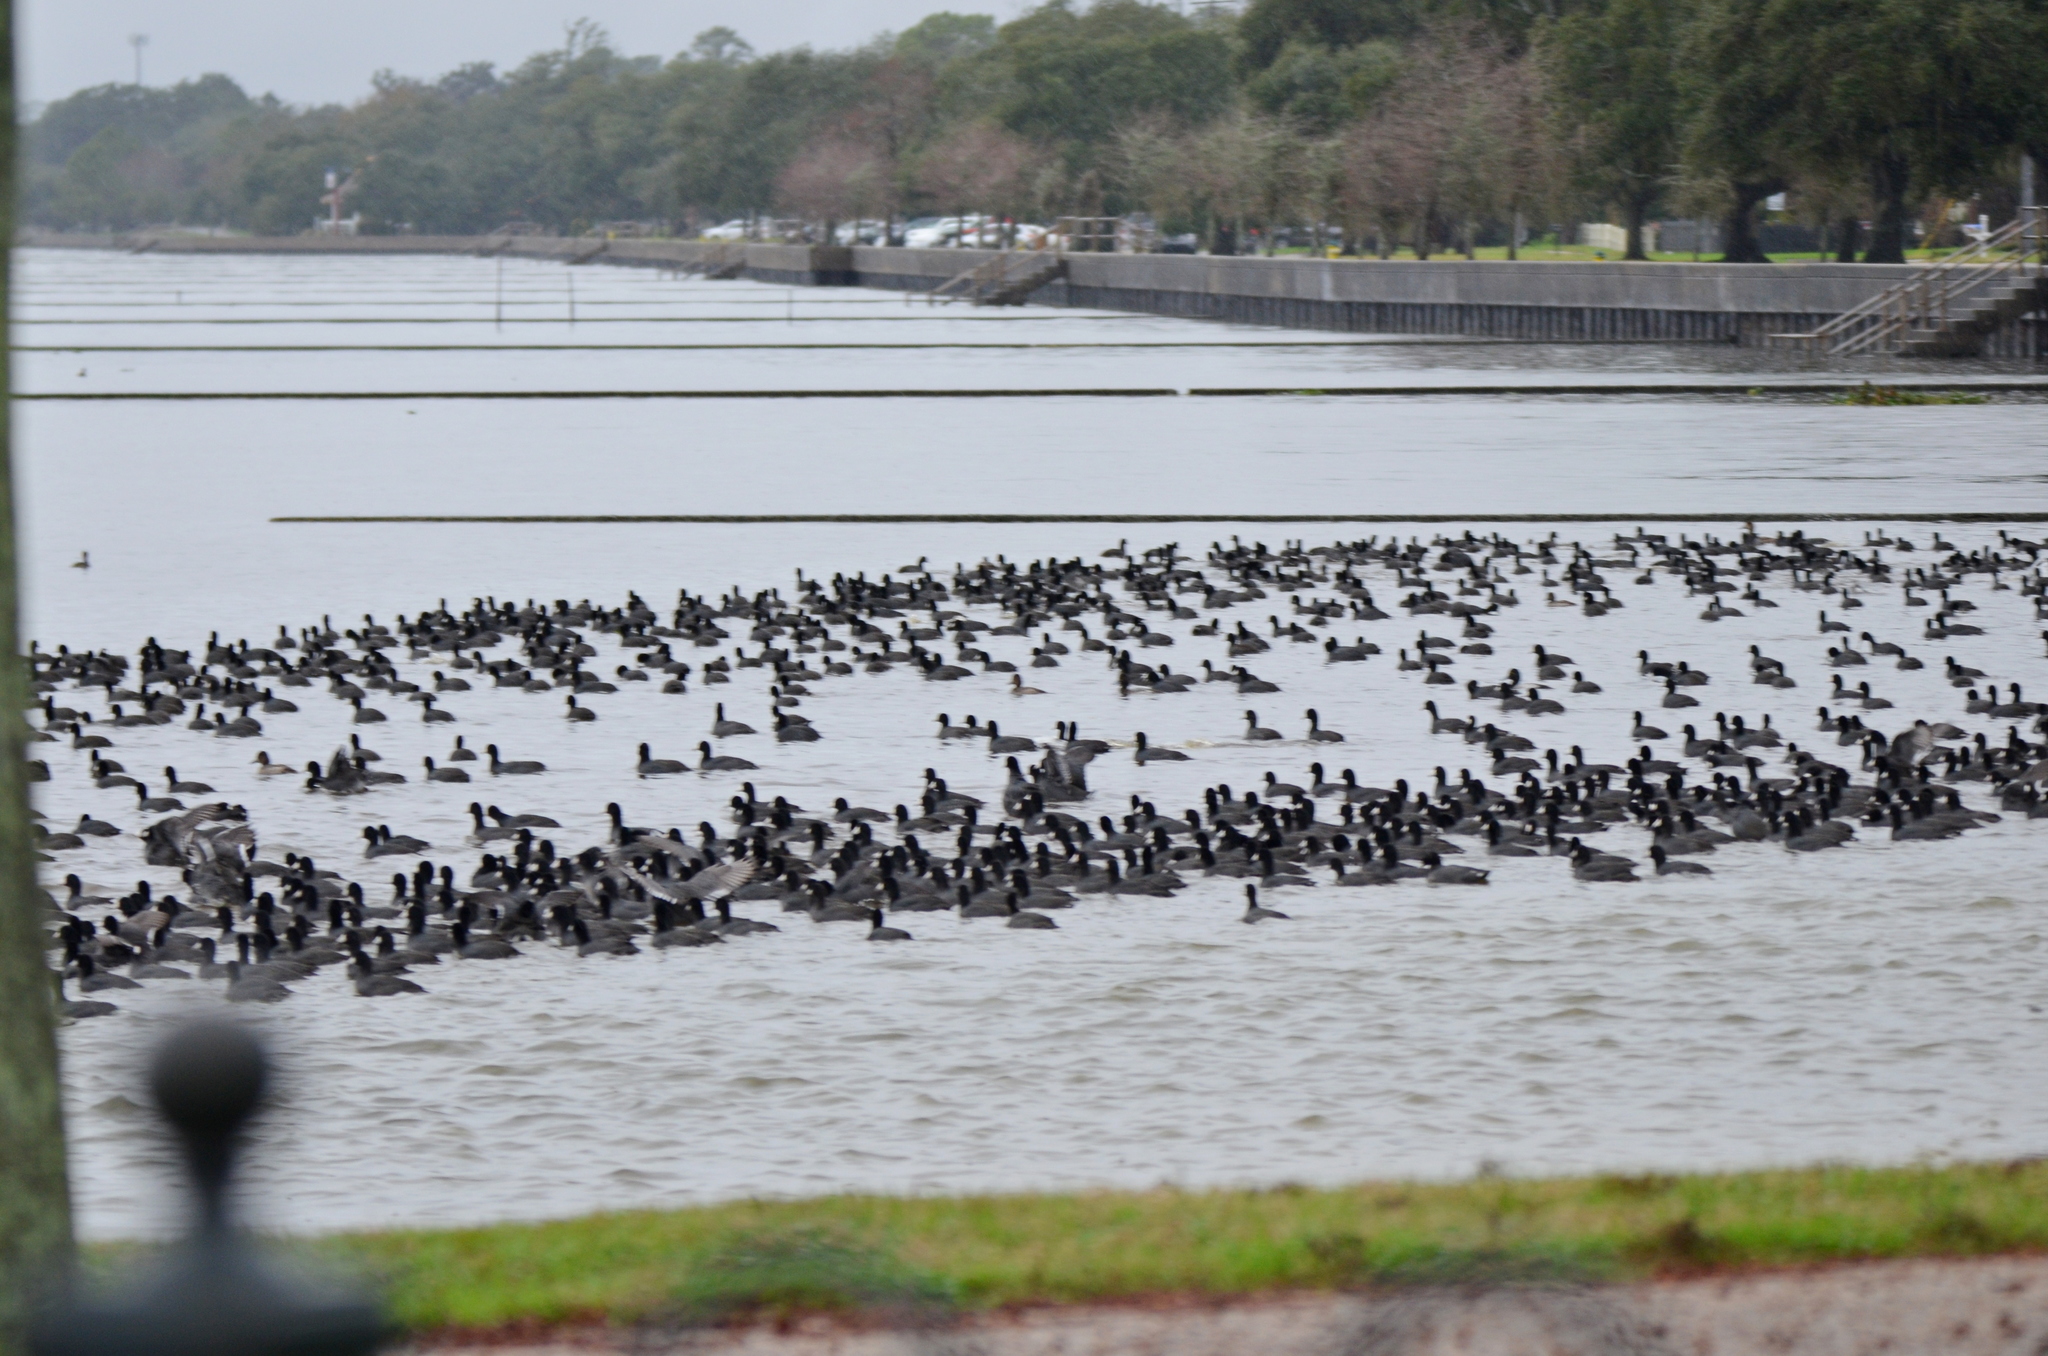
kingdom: Animalia
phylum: Chordata
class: Aves
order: Gruiformes
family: Rallidae
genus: Fulica
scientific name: Fulica americana
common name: American coot
